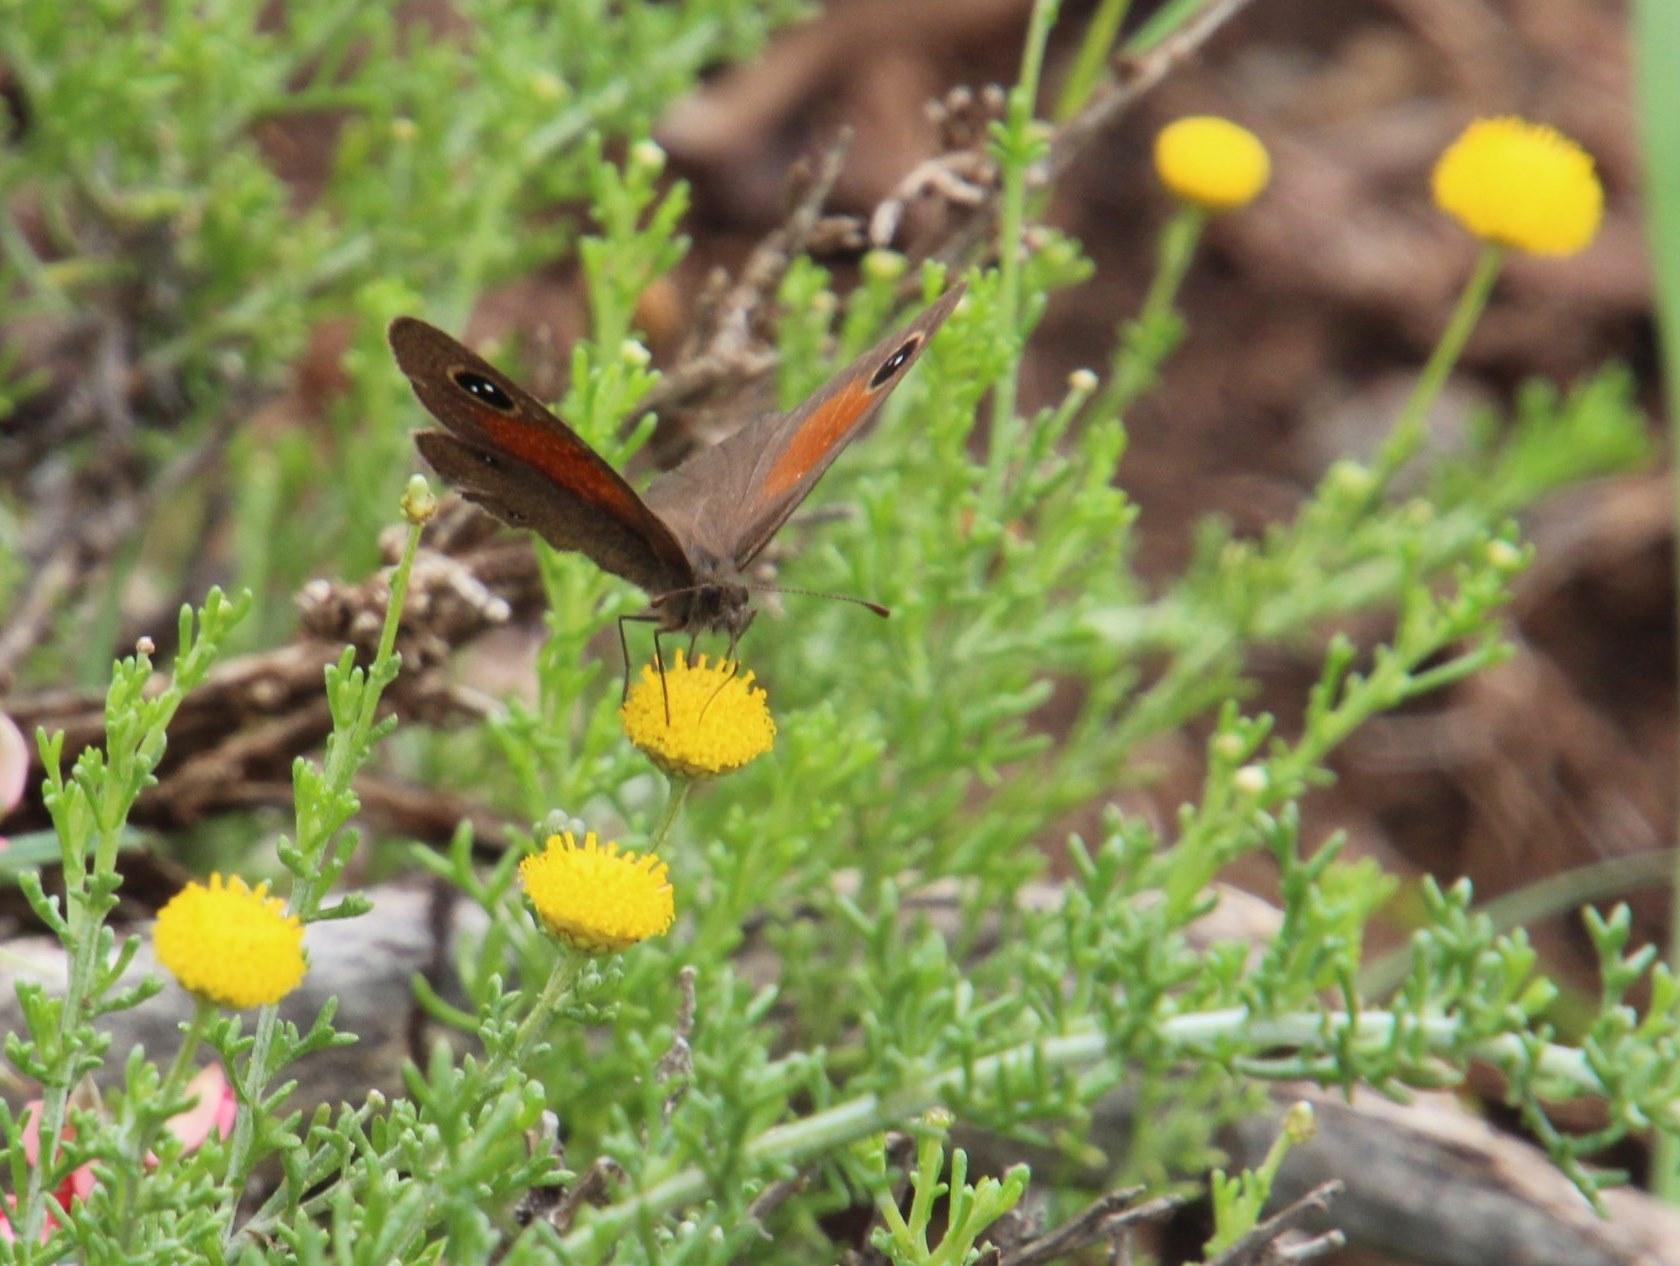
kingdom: Plantae
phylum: Tracheophyta
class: Magnoliopsida
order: Asterales
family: Asteraceae
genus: Pentzia
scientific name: Pentzia incana
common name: African sheepbush
